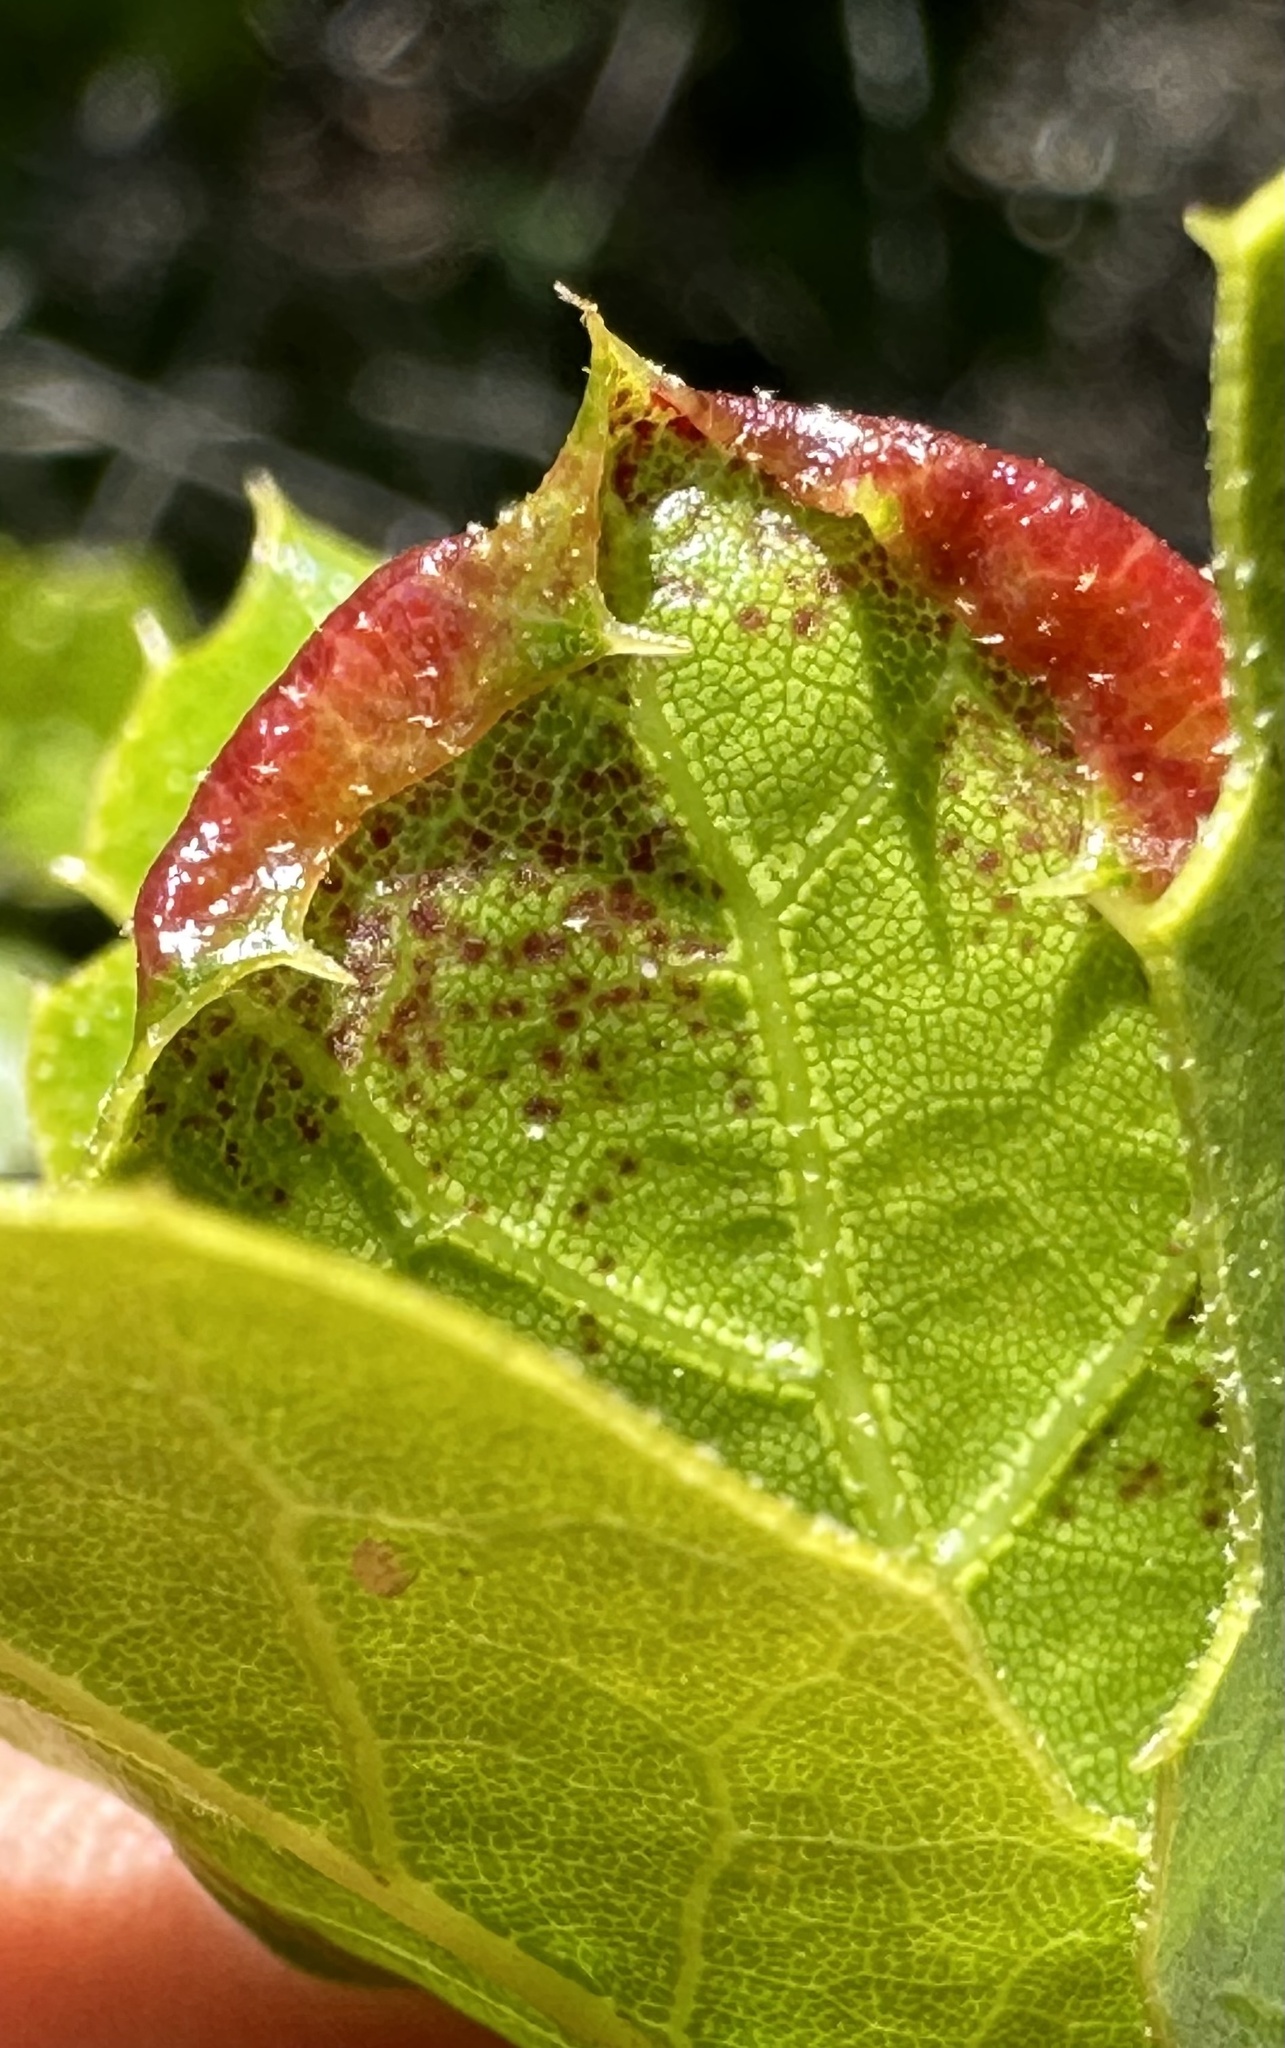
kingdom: Animalia
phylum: Arthropoda
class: Insecta
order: Hemiptera
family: Aphididae
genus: Stegophylla
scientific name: Stegophylla essigi
